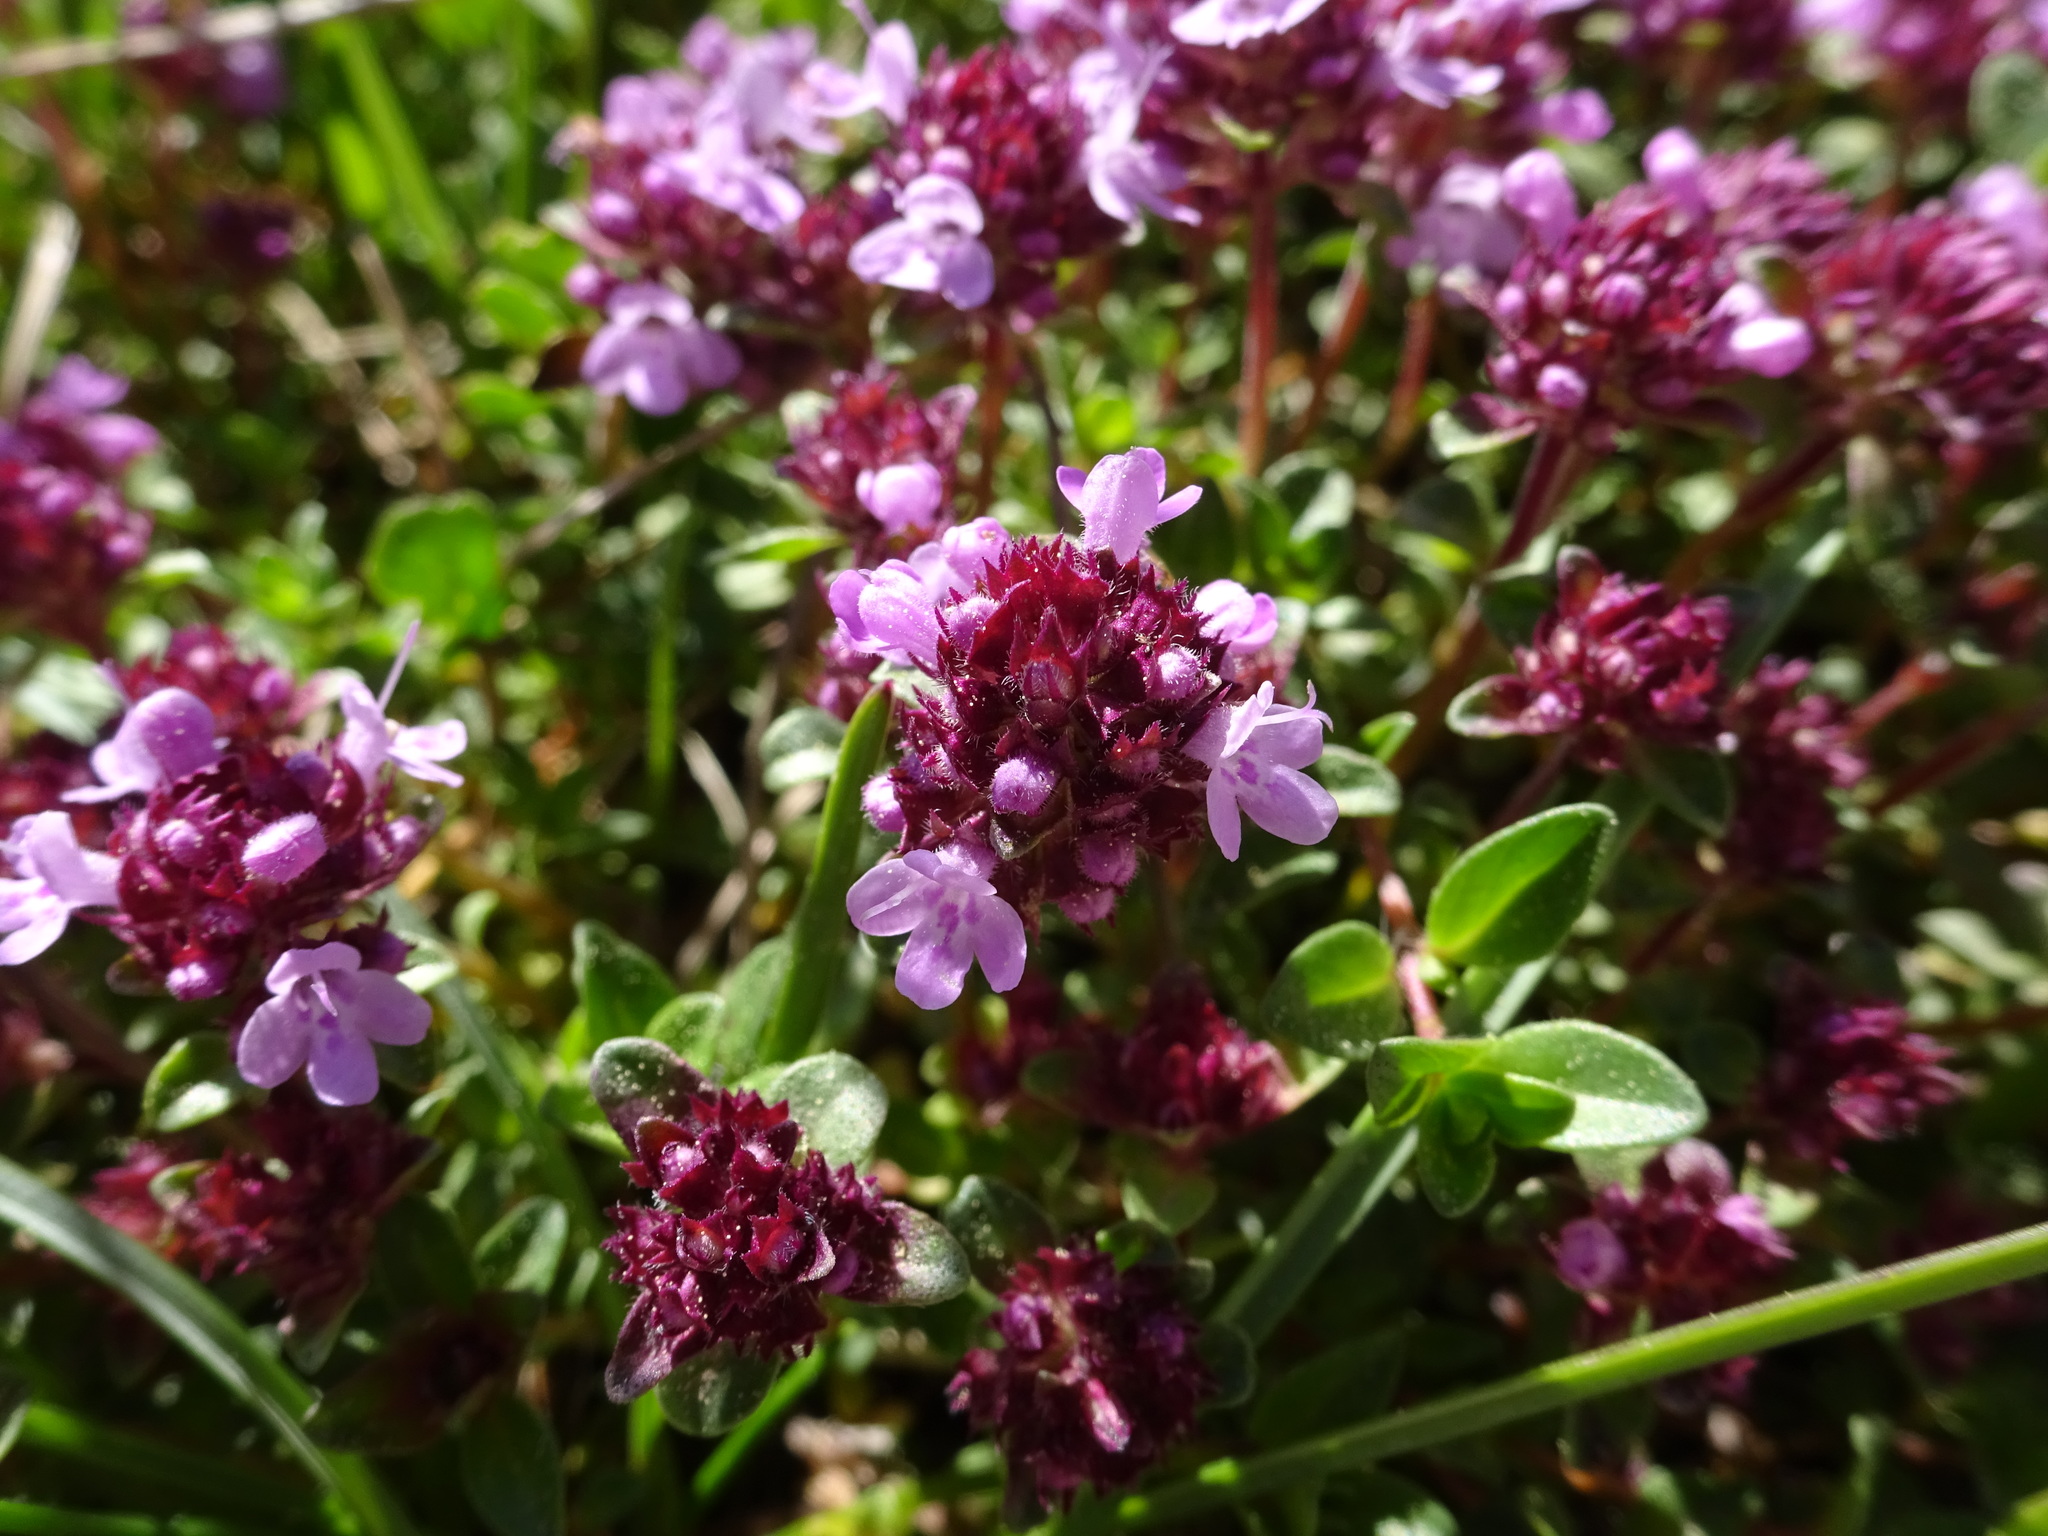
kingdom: Plantae
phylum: Tracheophyta
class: Magnoliopsida
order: Lamiales
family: Lamiaceae
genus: Thymus
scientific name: Thymus pulegioides
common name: Large thyme
